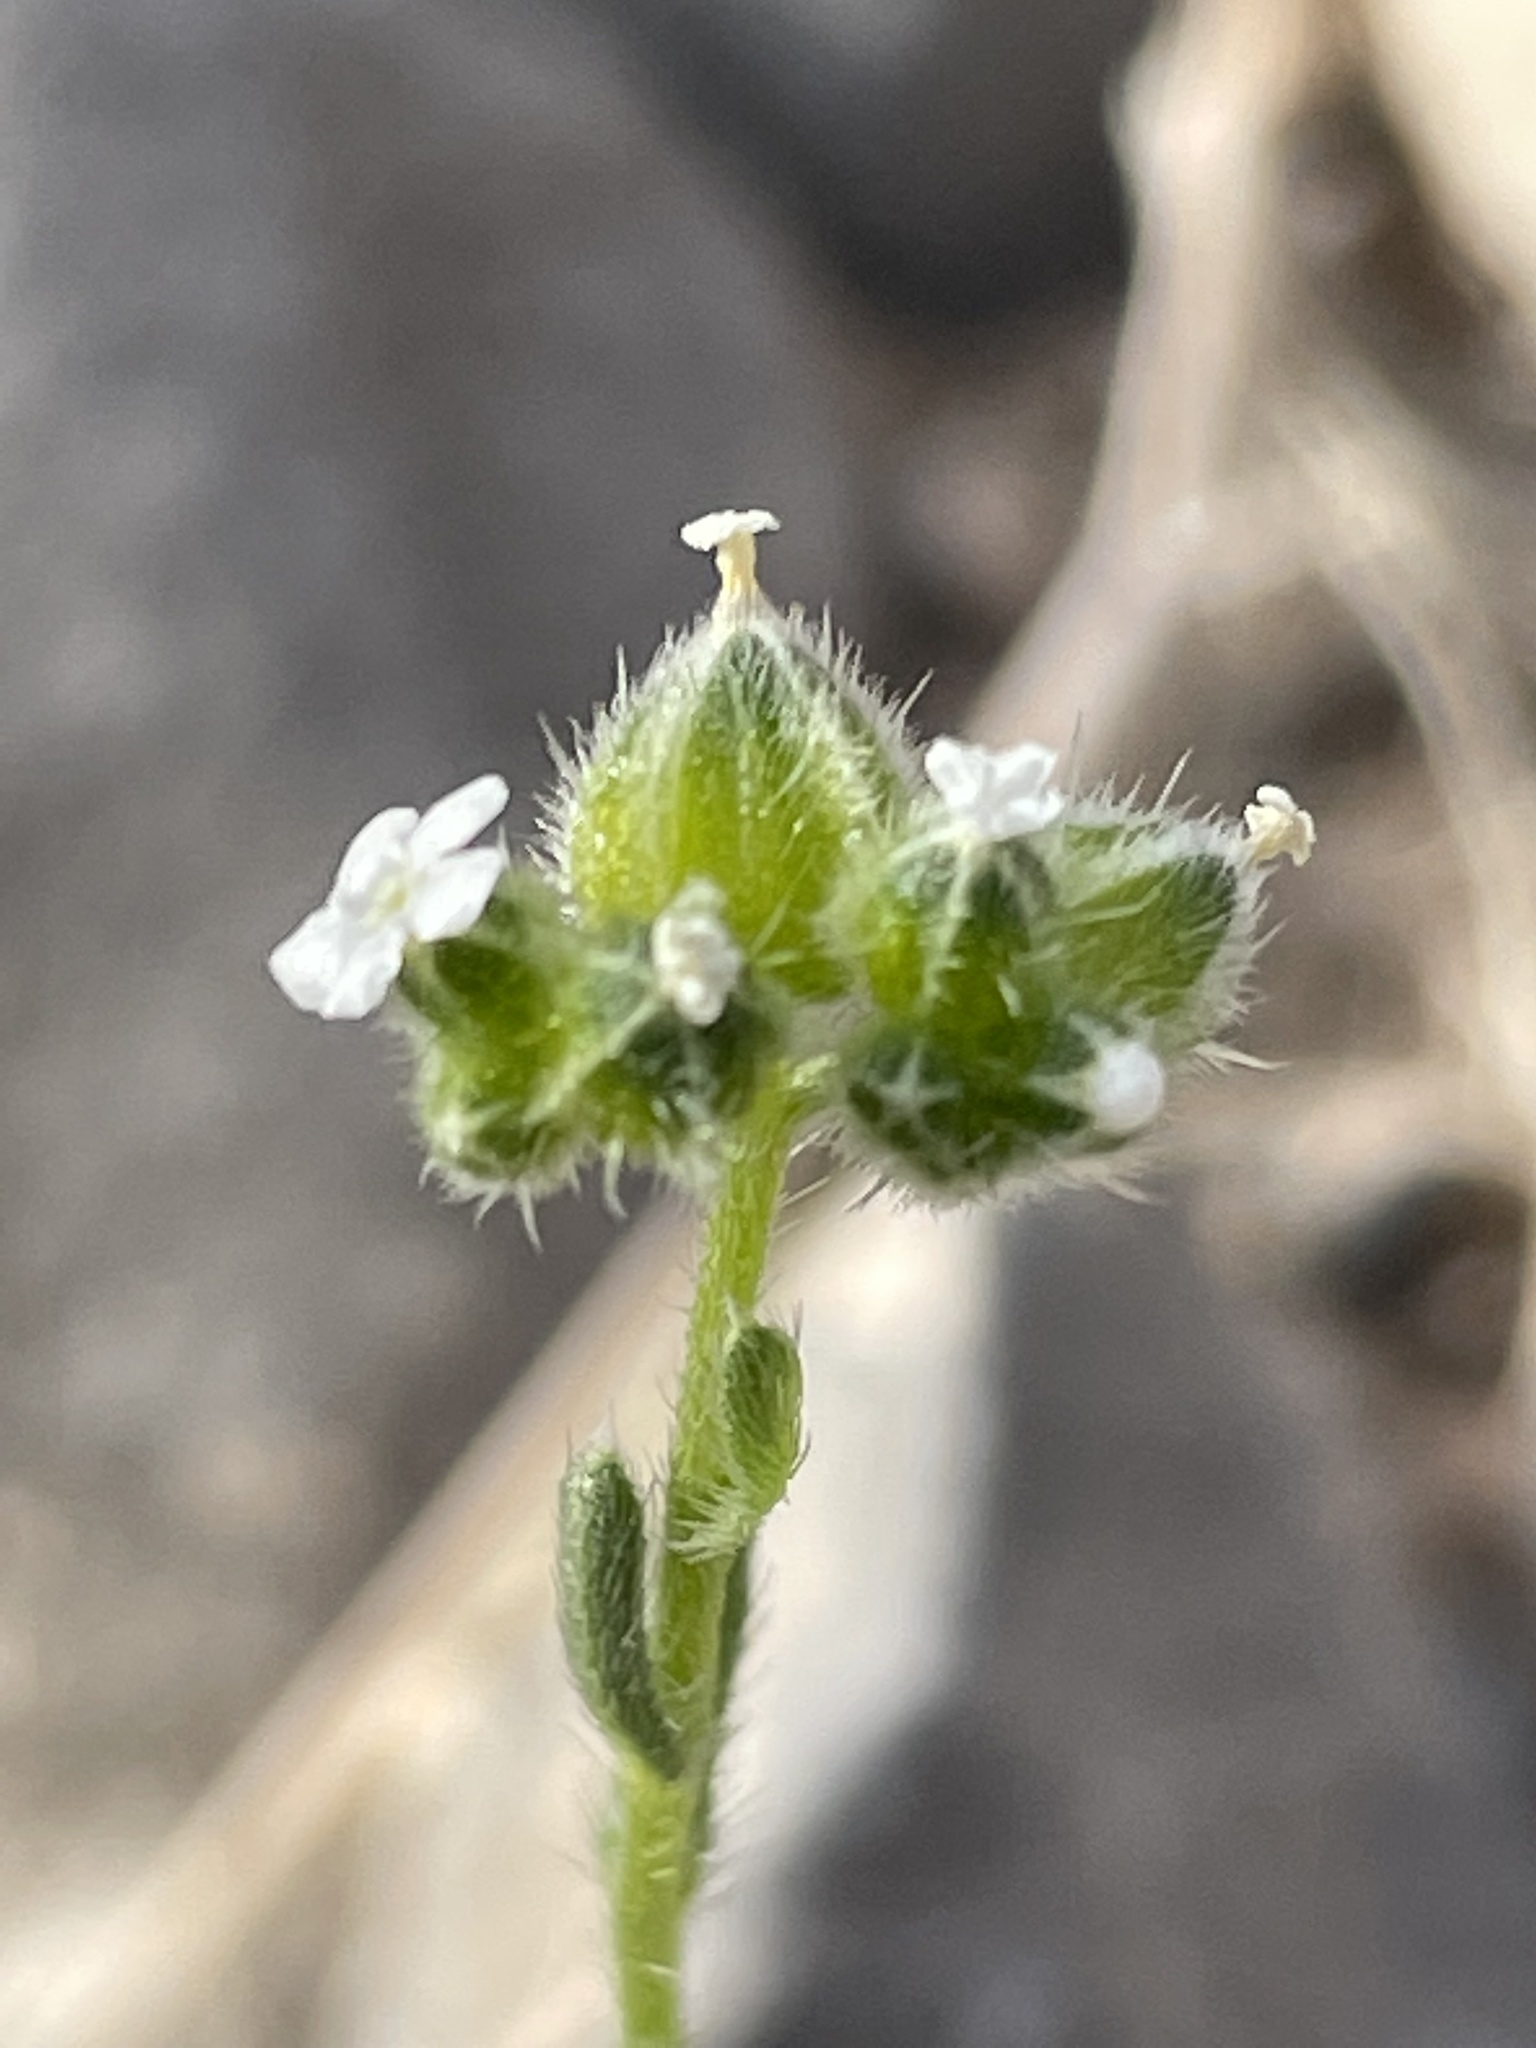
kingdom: Plantae
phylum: Tracheophyta
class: Magnoliopsida
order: Boraginales
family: Boraginaceae
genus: Cryptantha
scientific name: Cryptantha pterocarya
